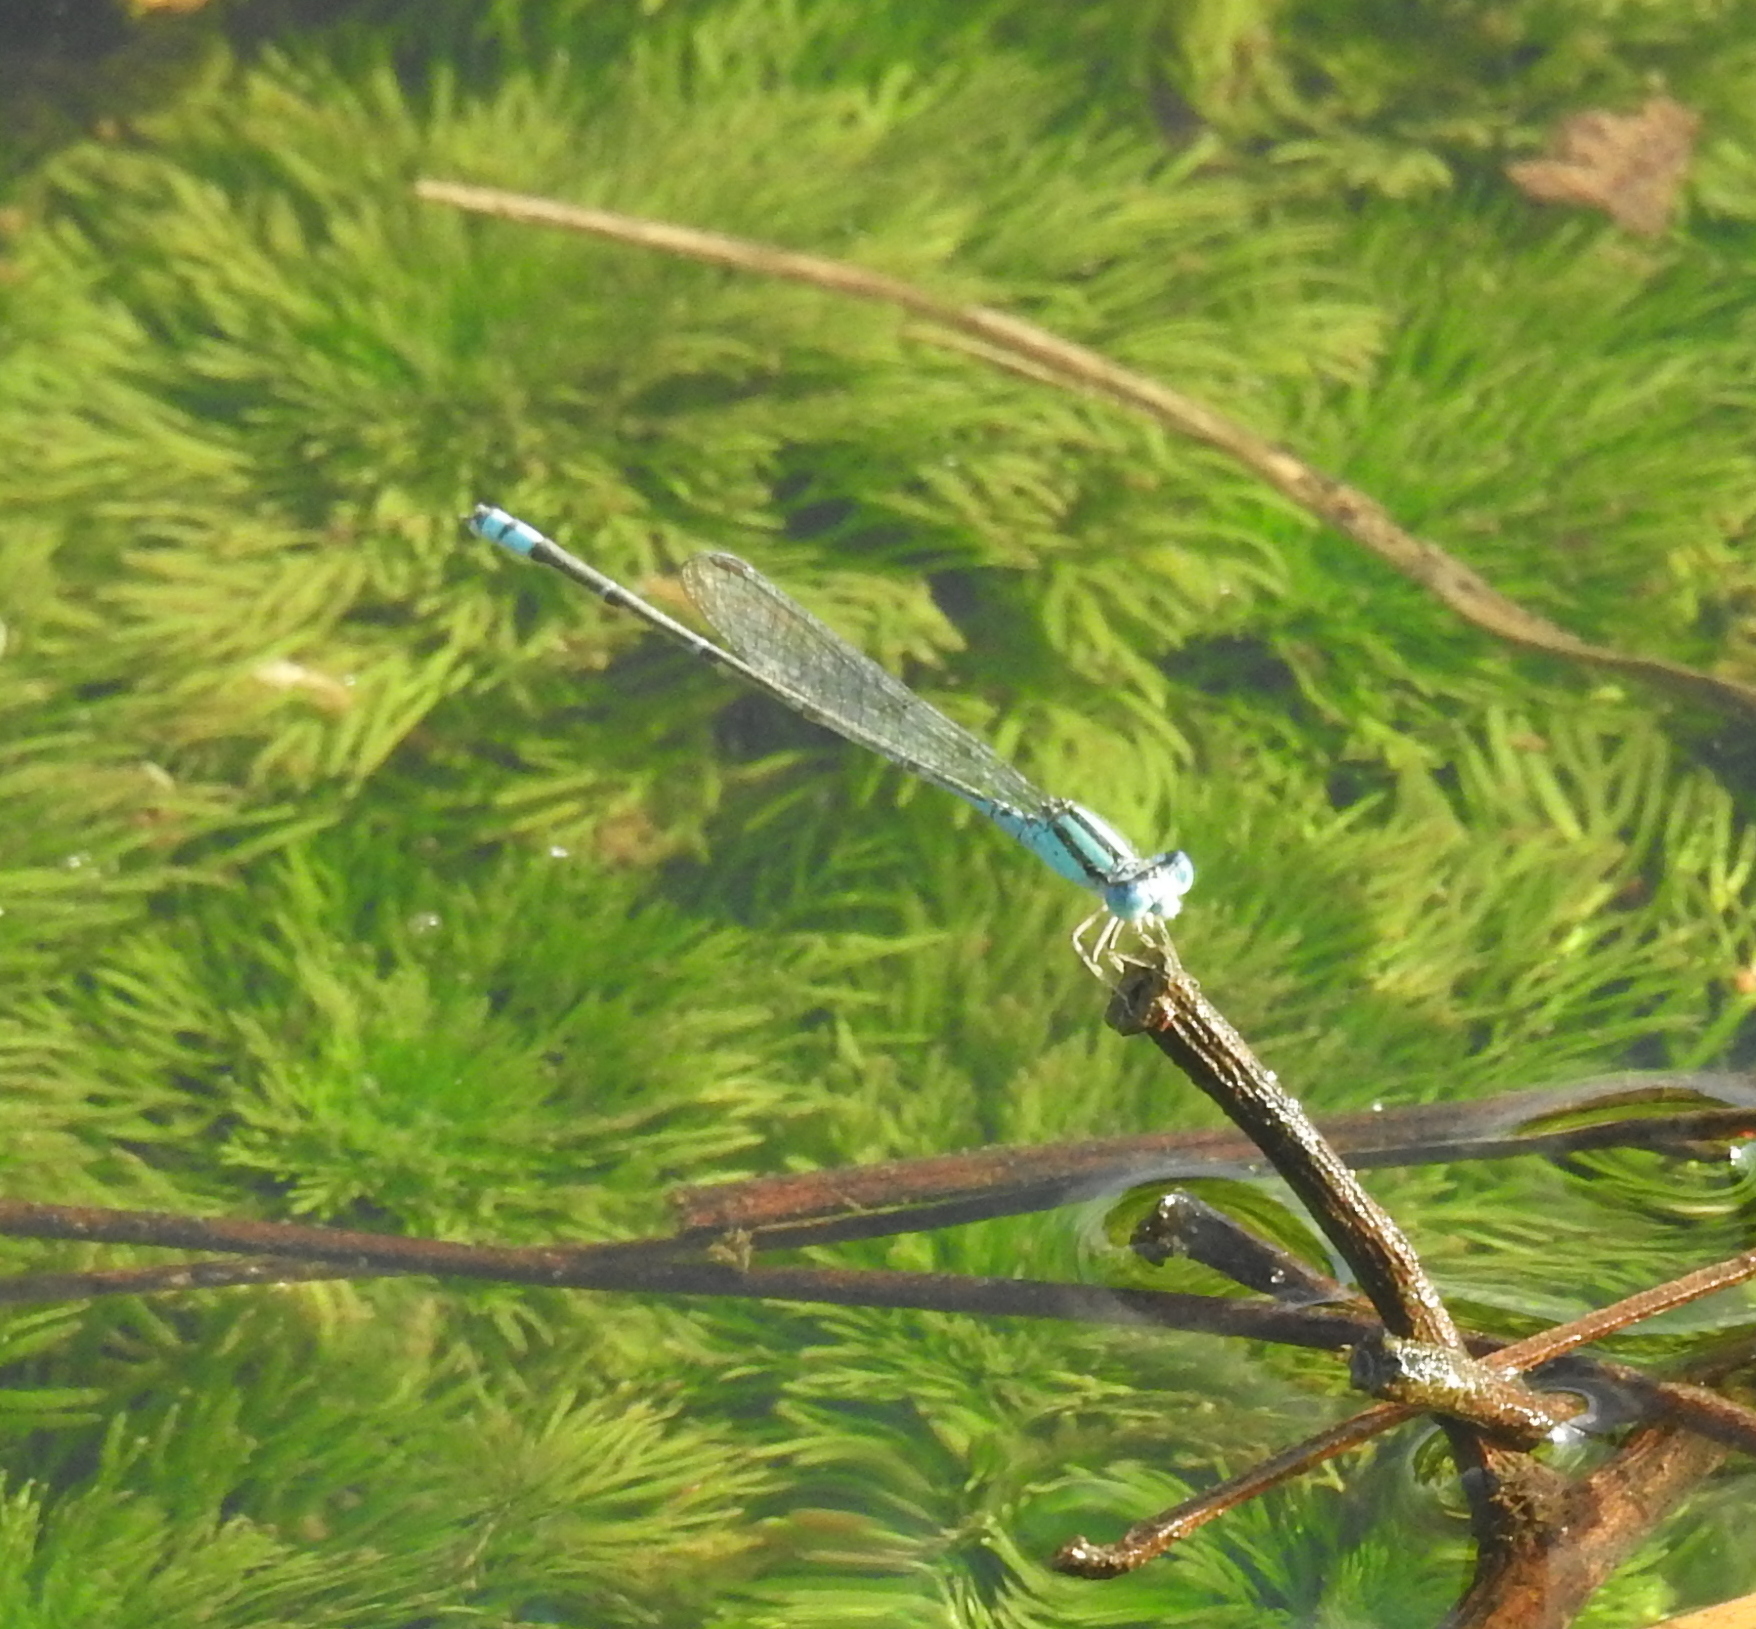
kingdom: Animalia
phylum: Arthropoda
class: Insecta
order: Odonata
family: Coenagrionidae
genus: Pseudagrion
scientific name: Pseudagrion microcephalum
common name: Blue riverdamsel
